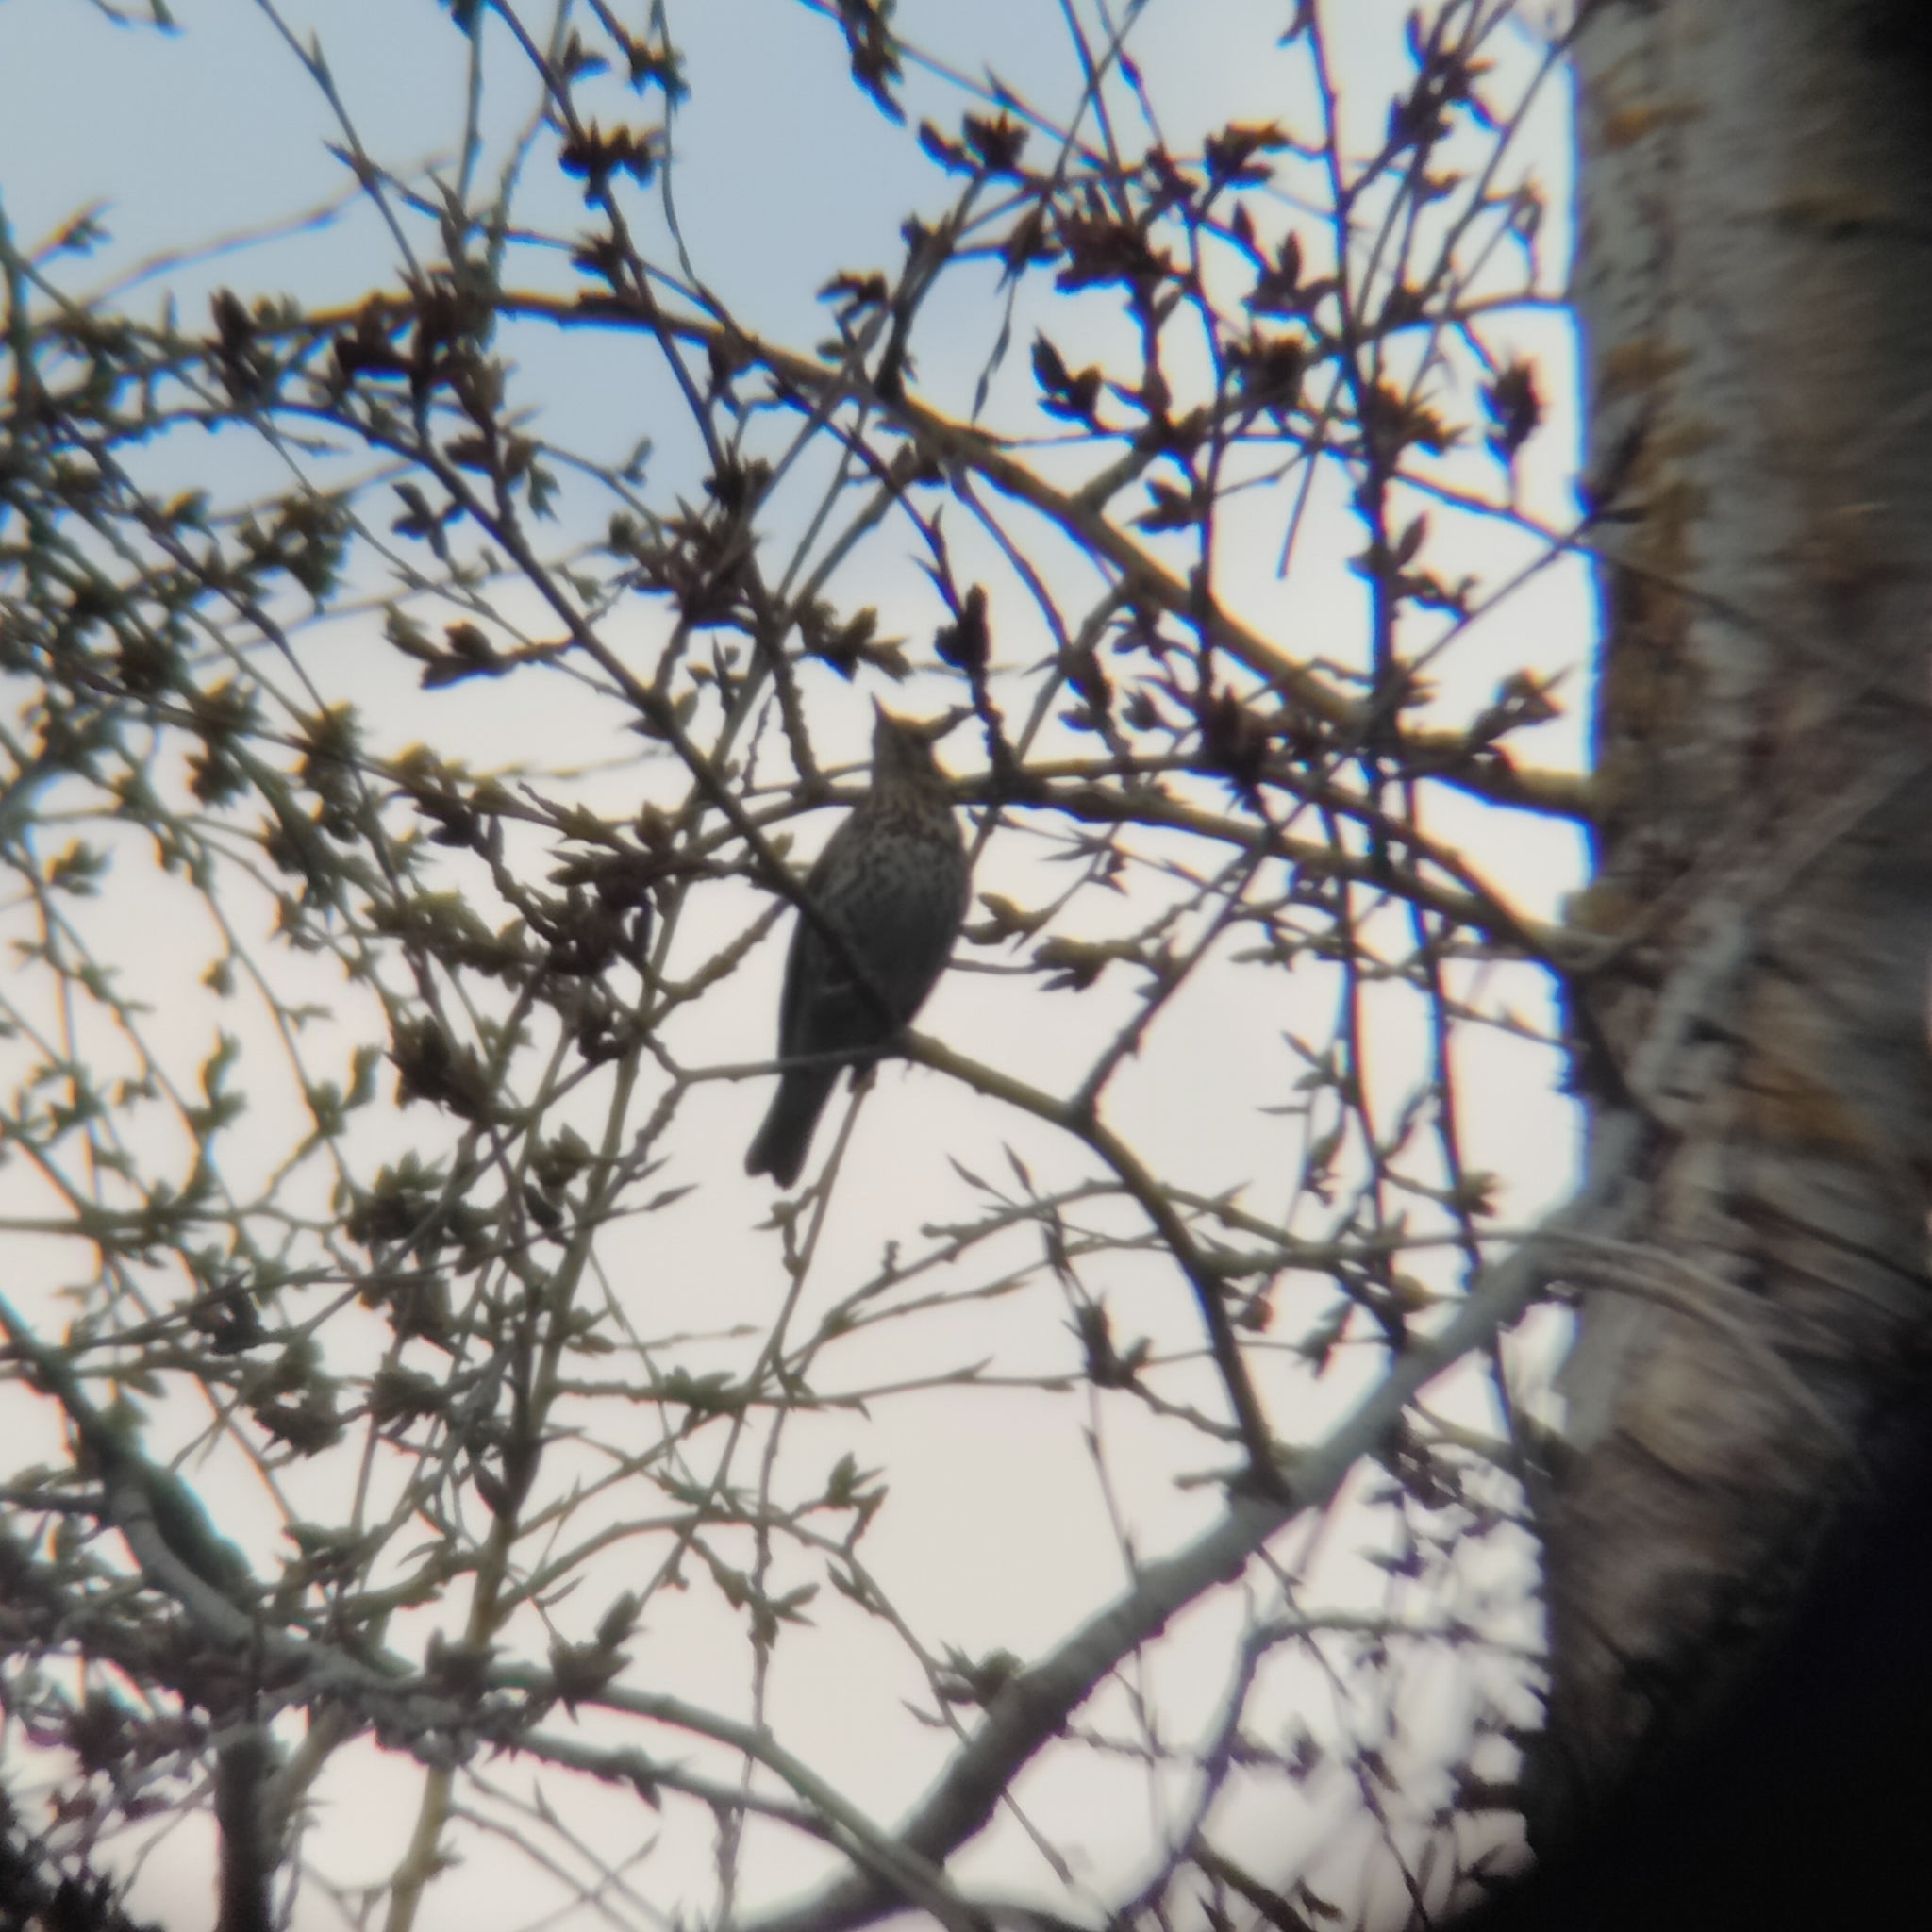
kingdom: Animalia
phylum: Chordata
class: Aves
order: Passeriformes
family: Turdidae
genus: Turdus
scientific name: Turdus philomelos
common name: Song thrush
